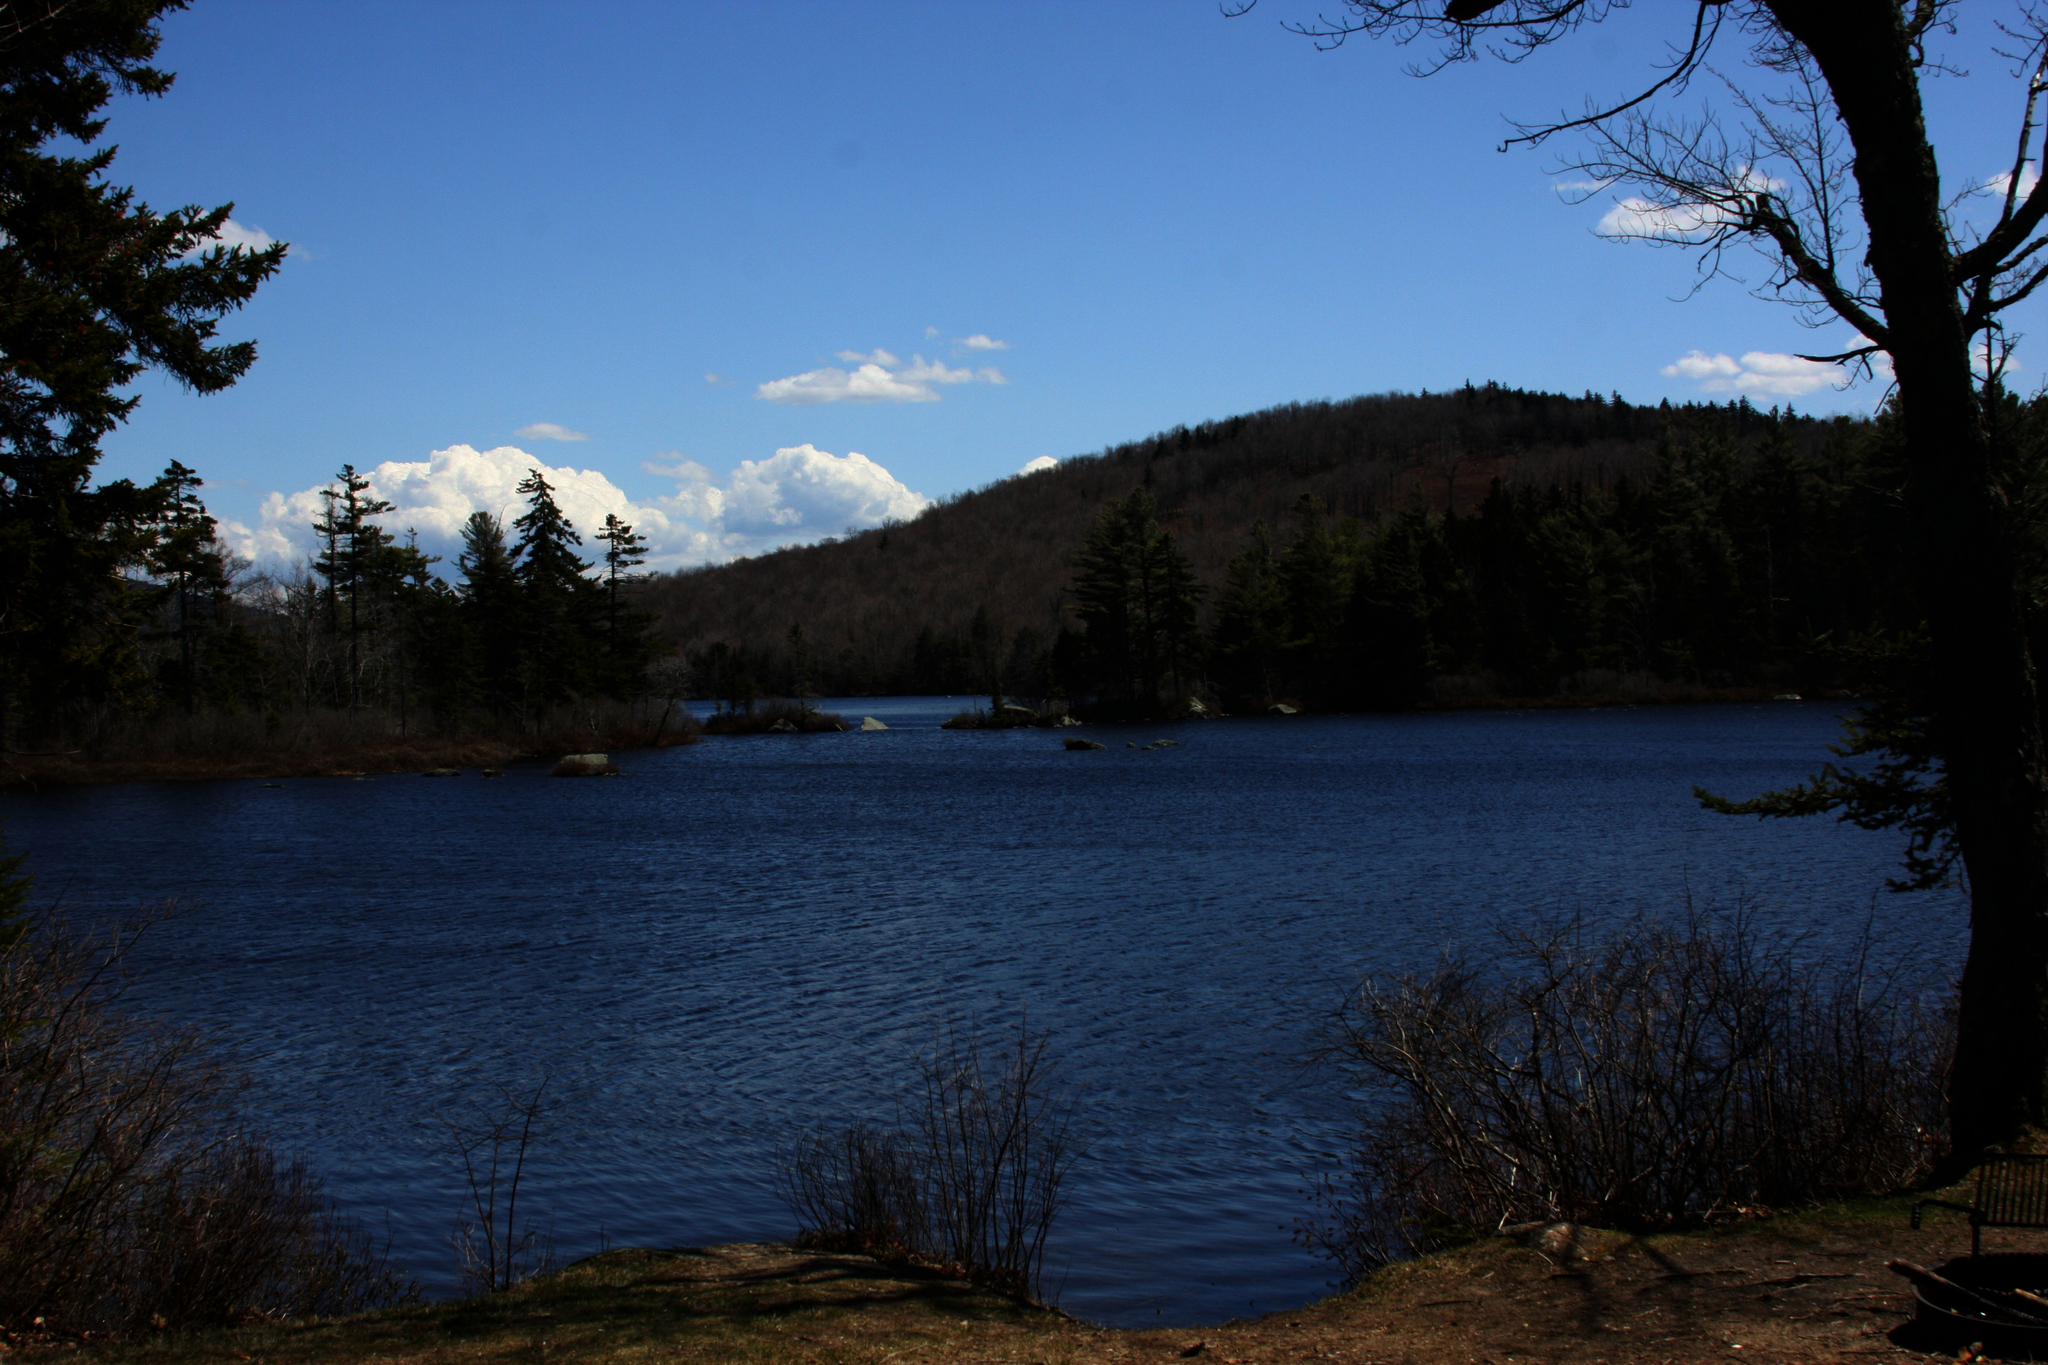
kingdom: Plantae
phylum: Tracheophyta
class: Pinopsida
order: Pinales
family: Pinaceae
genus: Pinus
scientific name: Pinus strobus
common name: Weymouth pine
